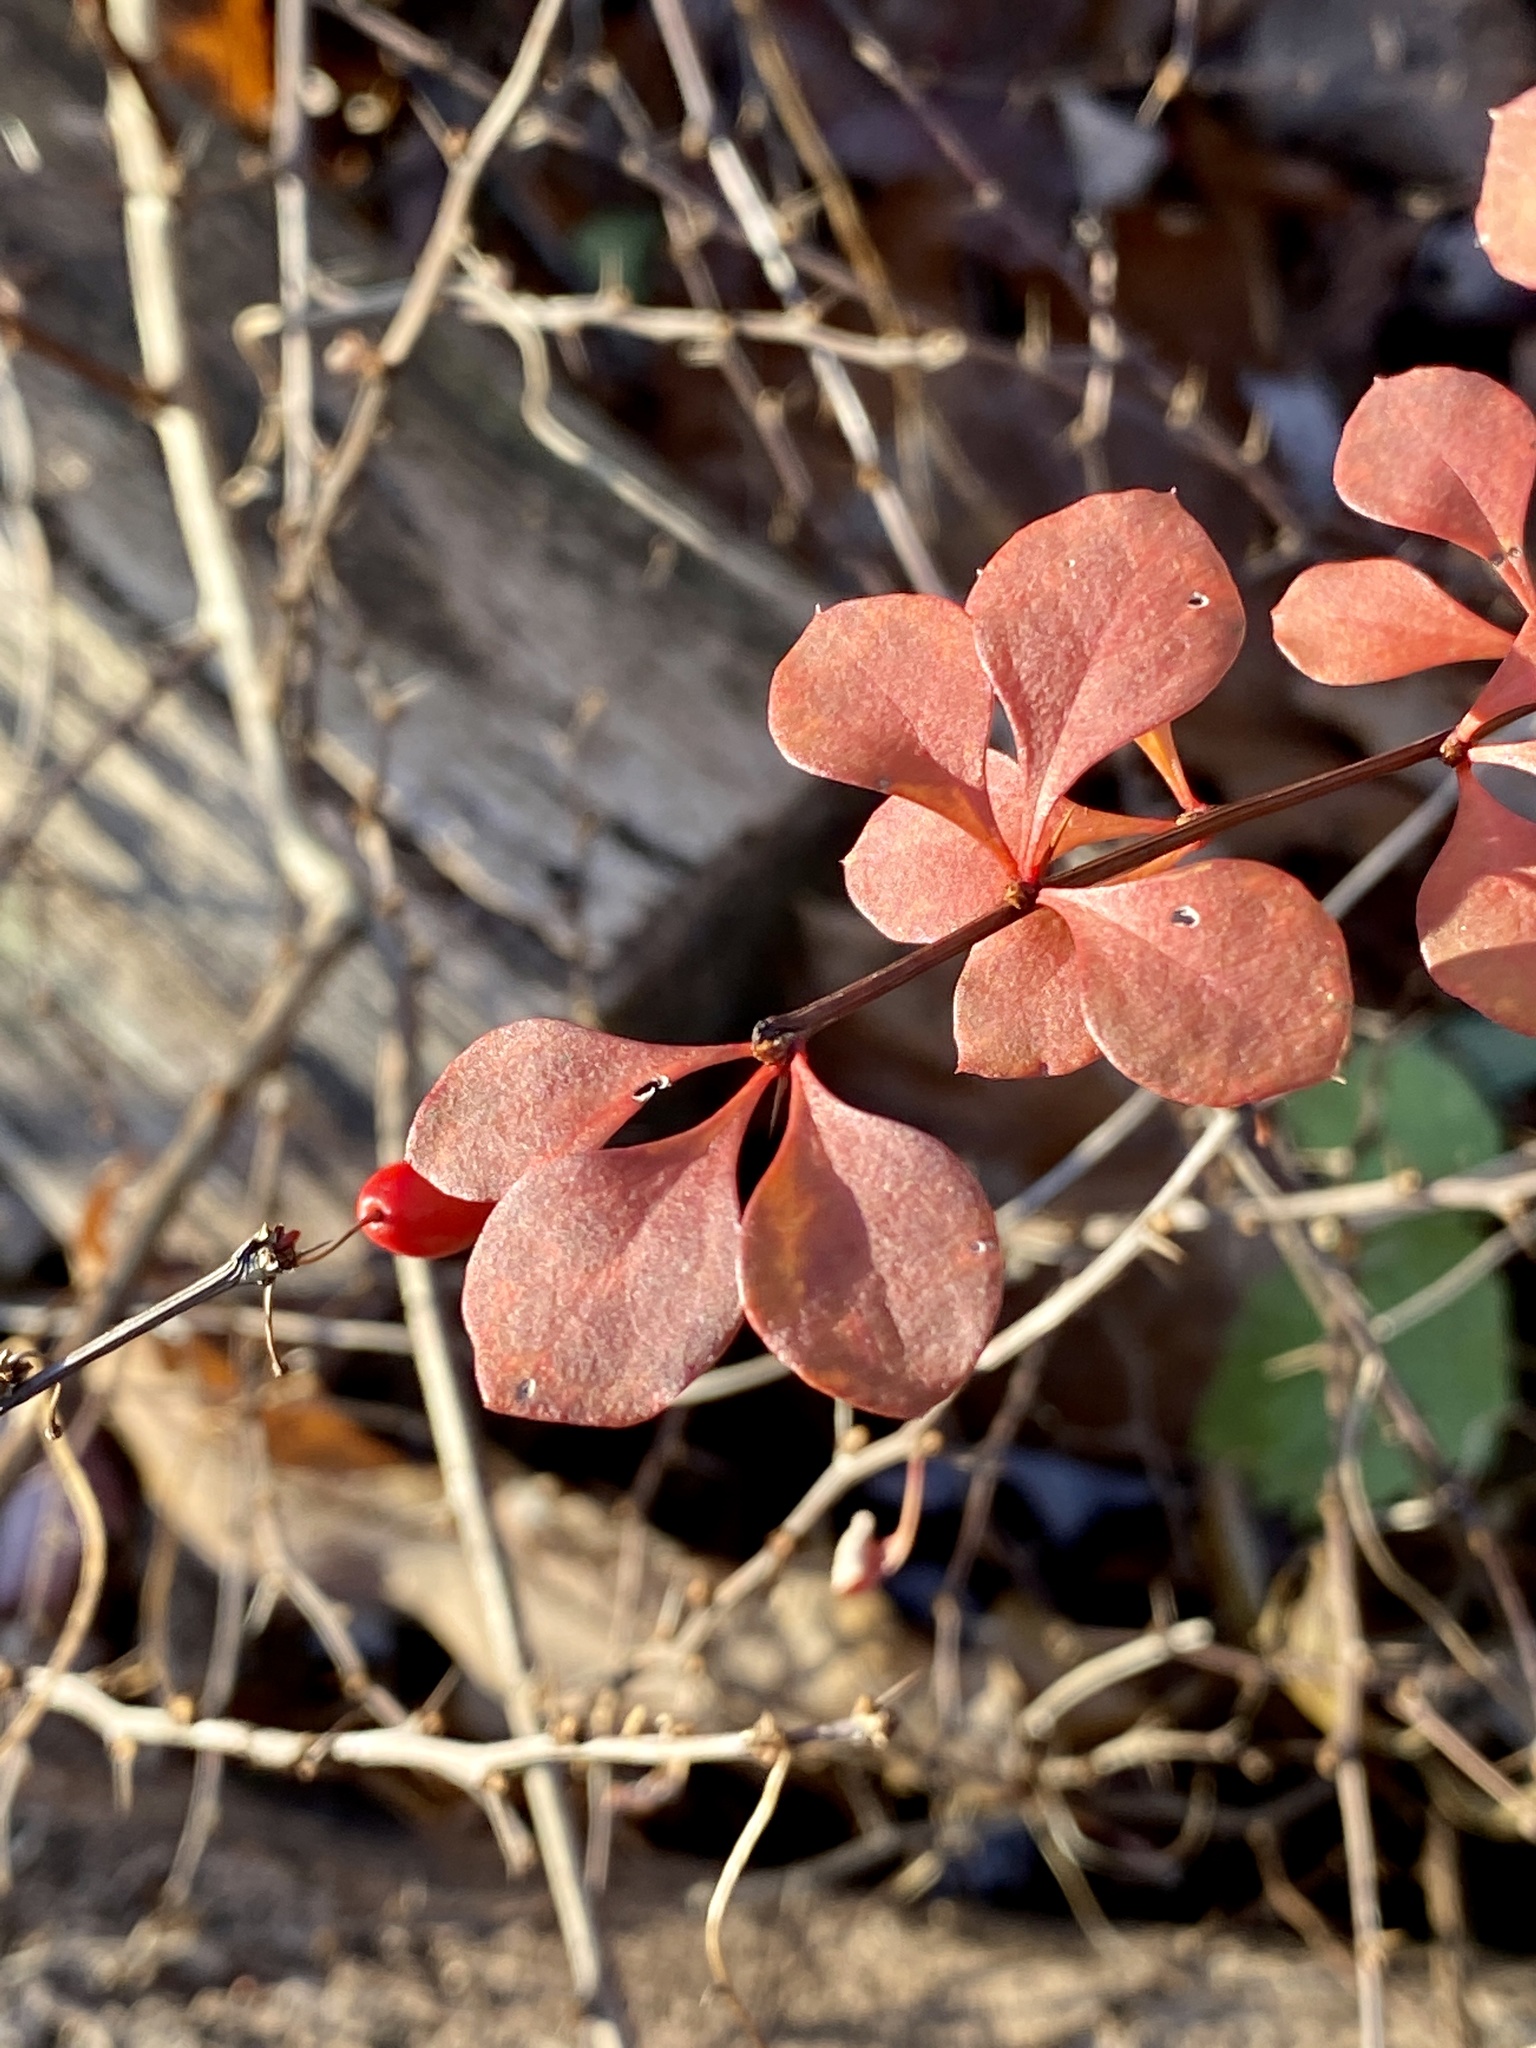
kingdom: Plantae
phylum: Tracheophyta
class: Magnoliopsida
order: Ranunculales
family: Berberidaceae
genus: Berberis
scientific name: Berberis thunbergii
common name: Japanese barberry
